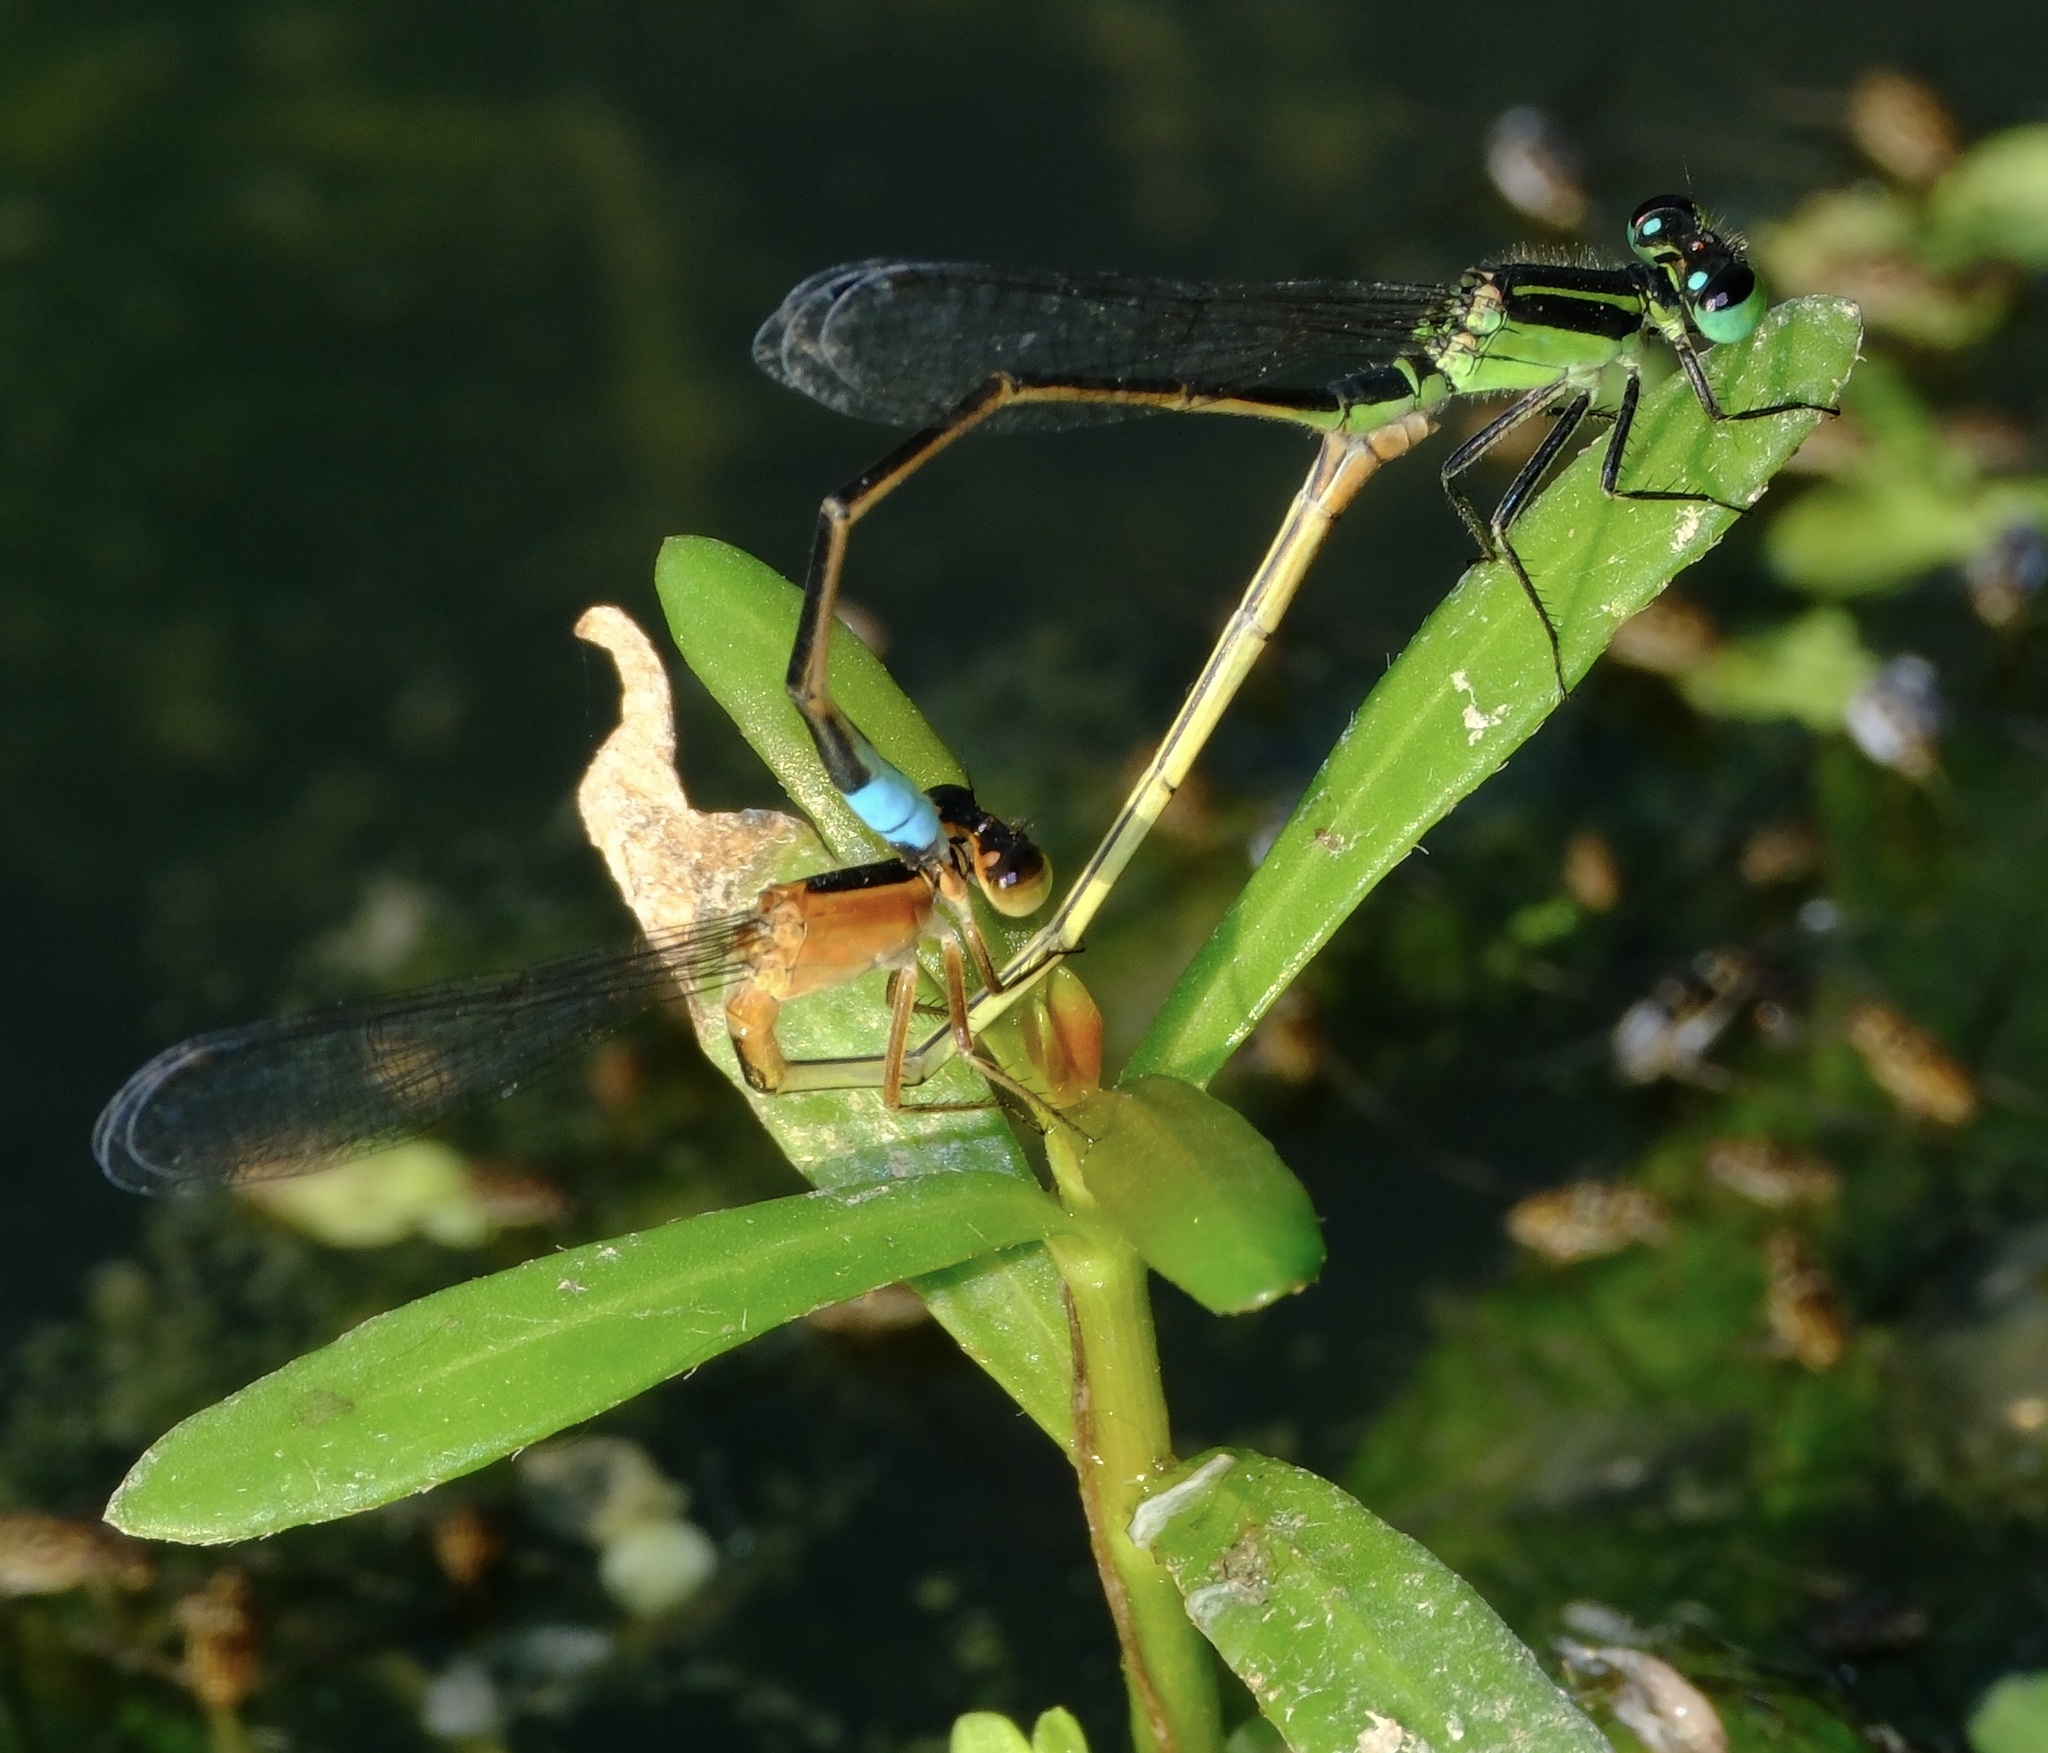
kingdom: Animalia
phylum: Arthropoda
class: Insecta
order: Odonata
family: Coenagrionidae
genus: Ischnura
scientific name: Ischnura ramburii
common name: Rambur's forktail
